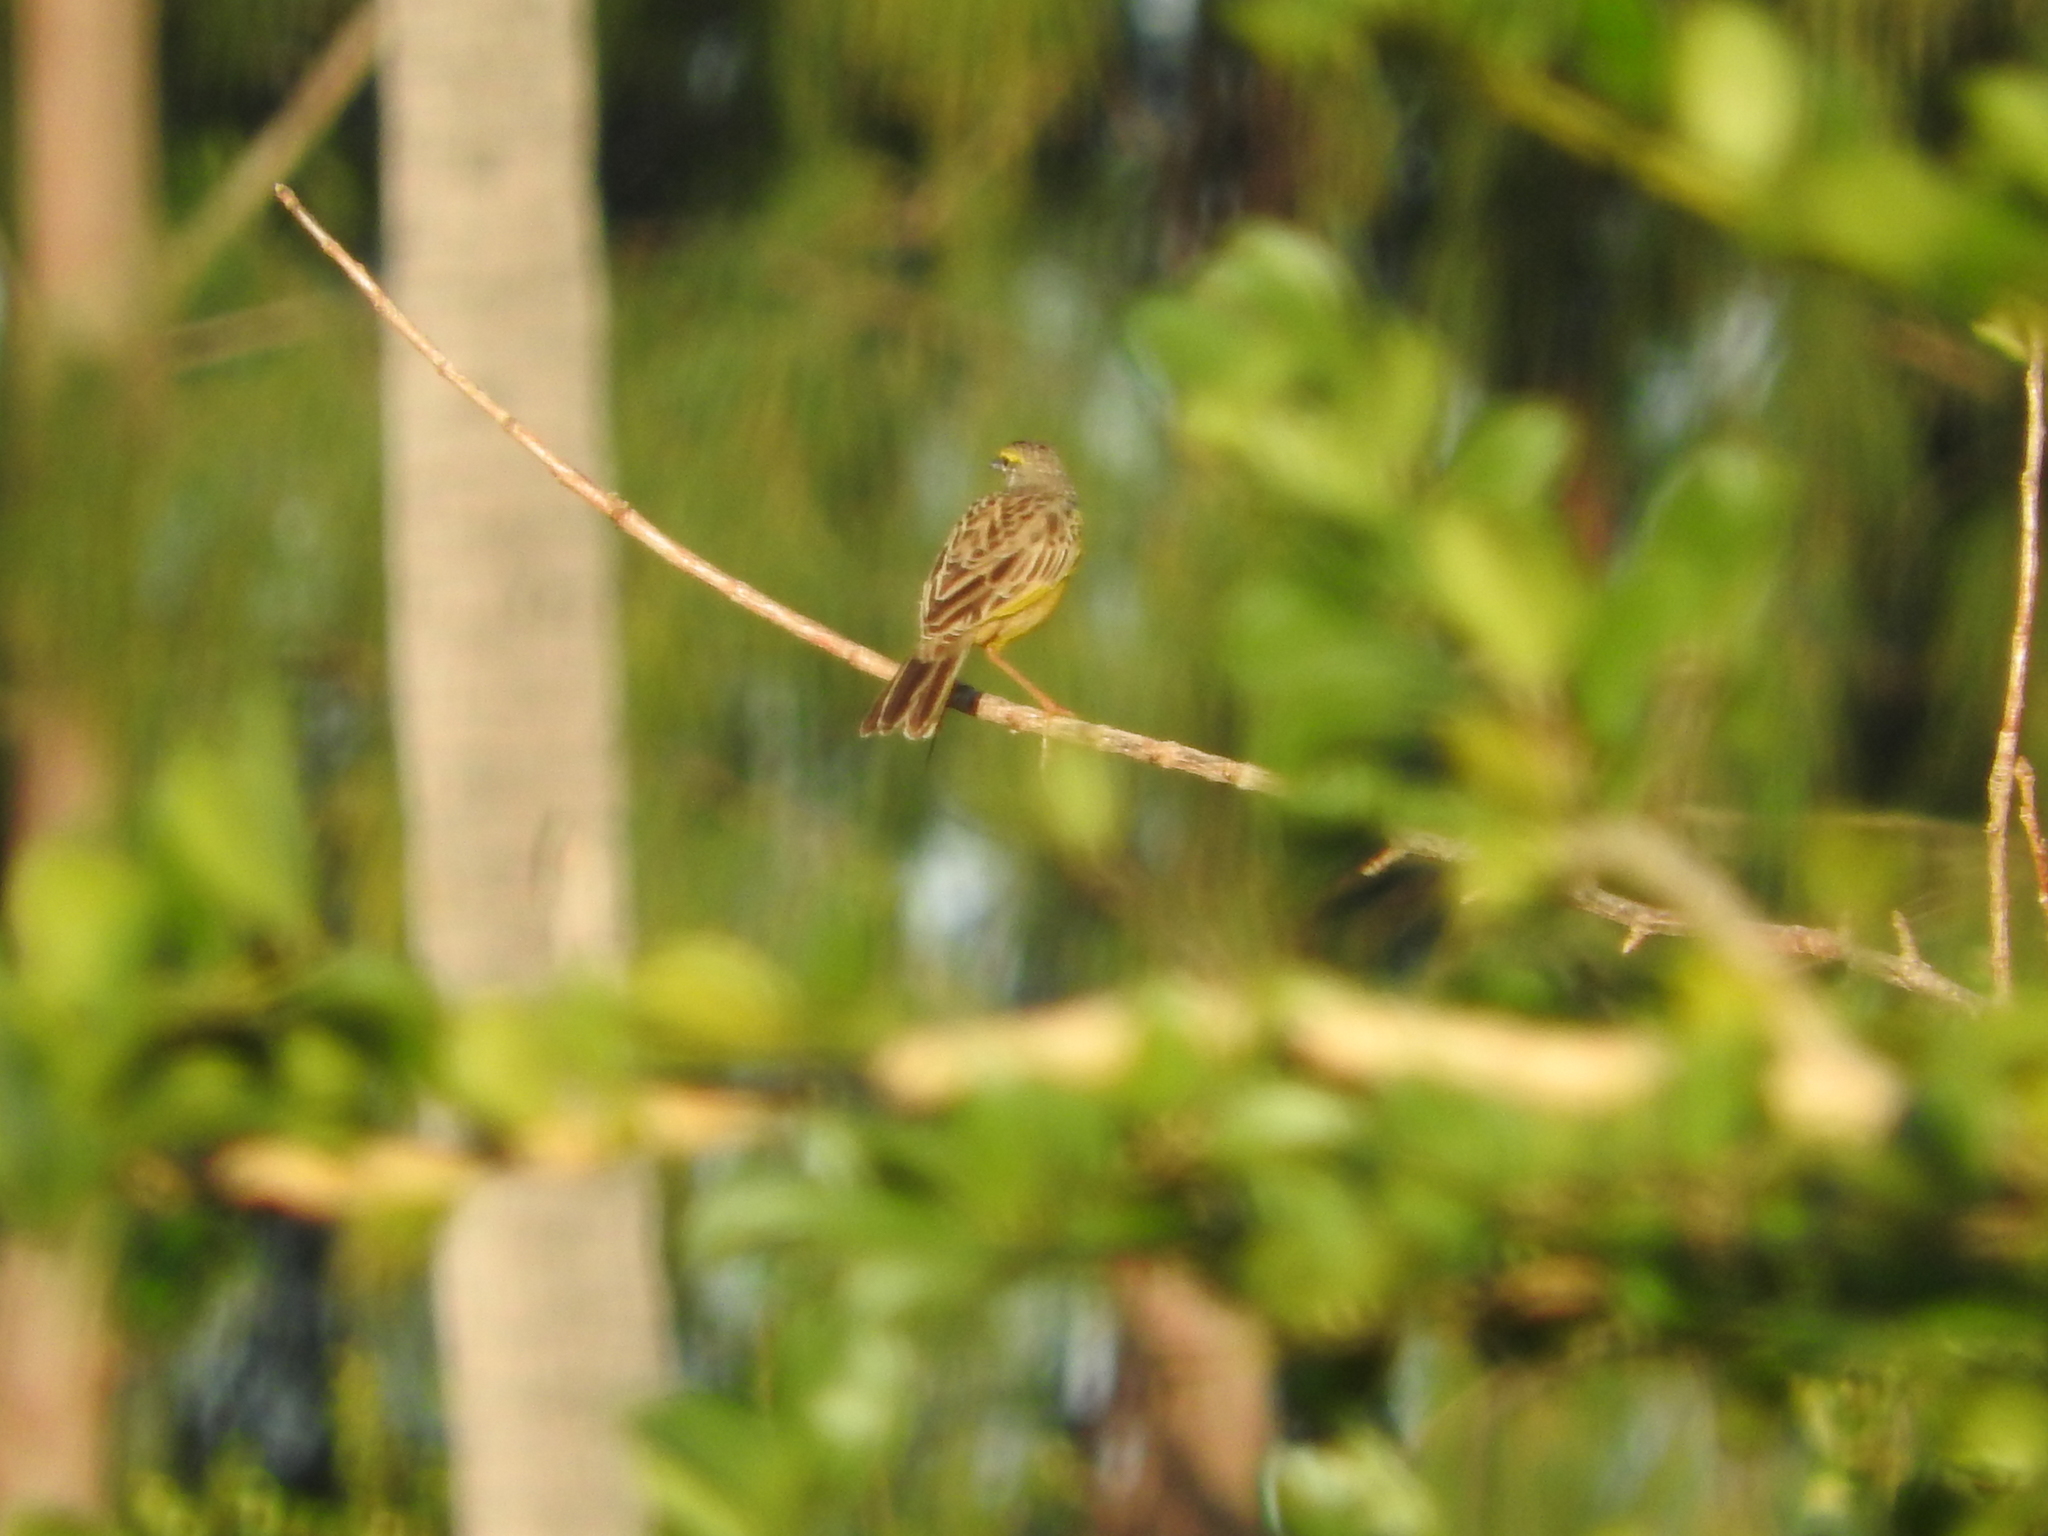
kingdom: Animalia
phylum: Chordata
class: Aves
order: Passeriformes
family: Motacillidae
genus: Macronyx
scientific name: Macronyx croceus
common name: Yellow-throated longclaw
